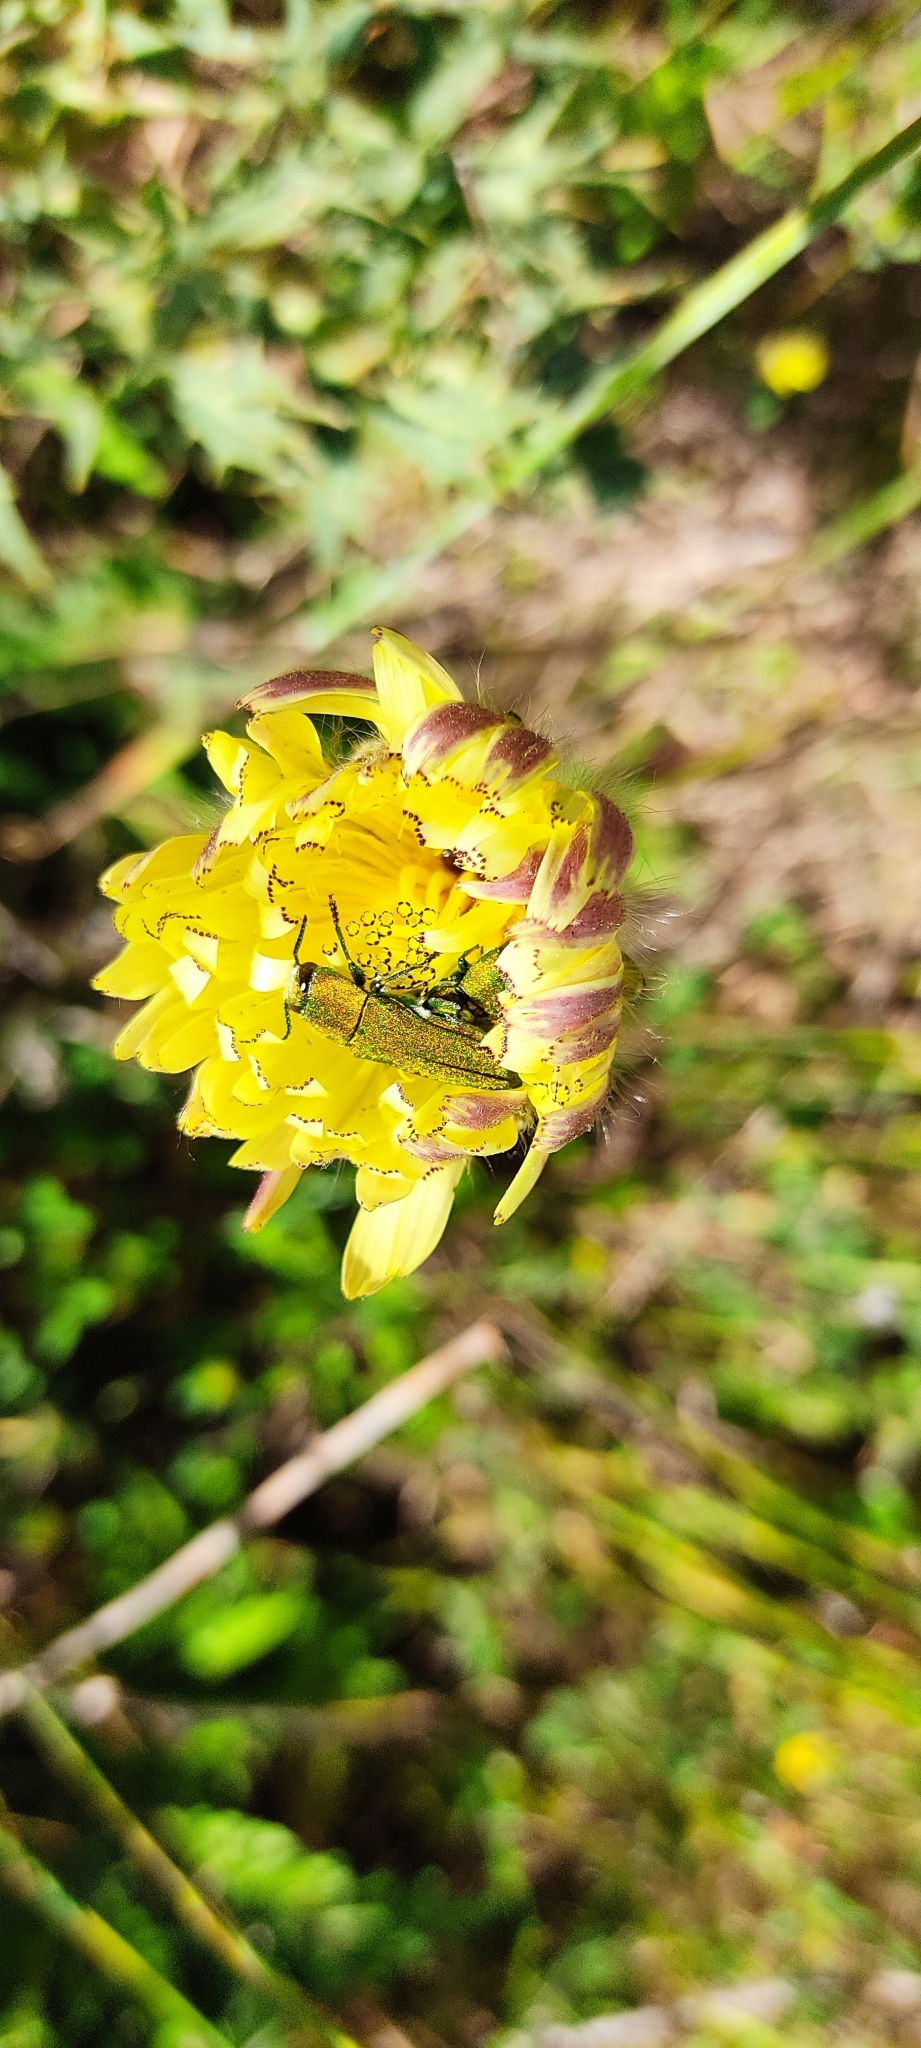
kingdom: Animalia
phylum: Arthropoda
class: Insecta
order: Coleoptera
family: Buprestidae
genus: Anthaxia
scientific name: Anthaxia hungarica
